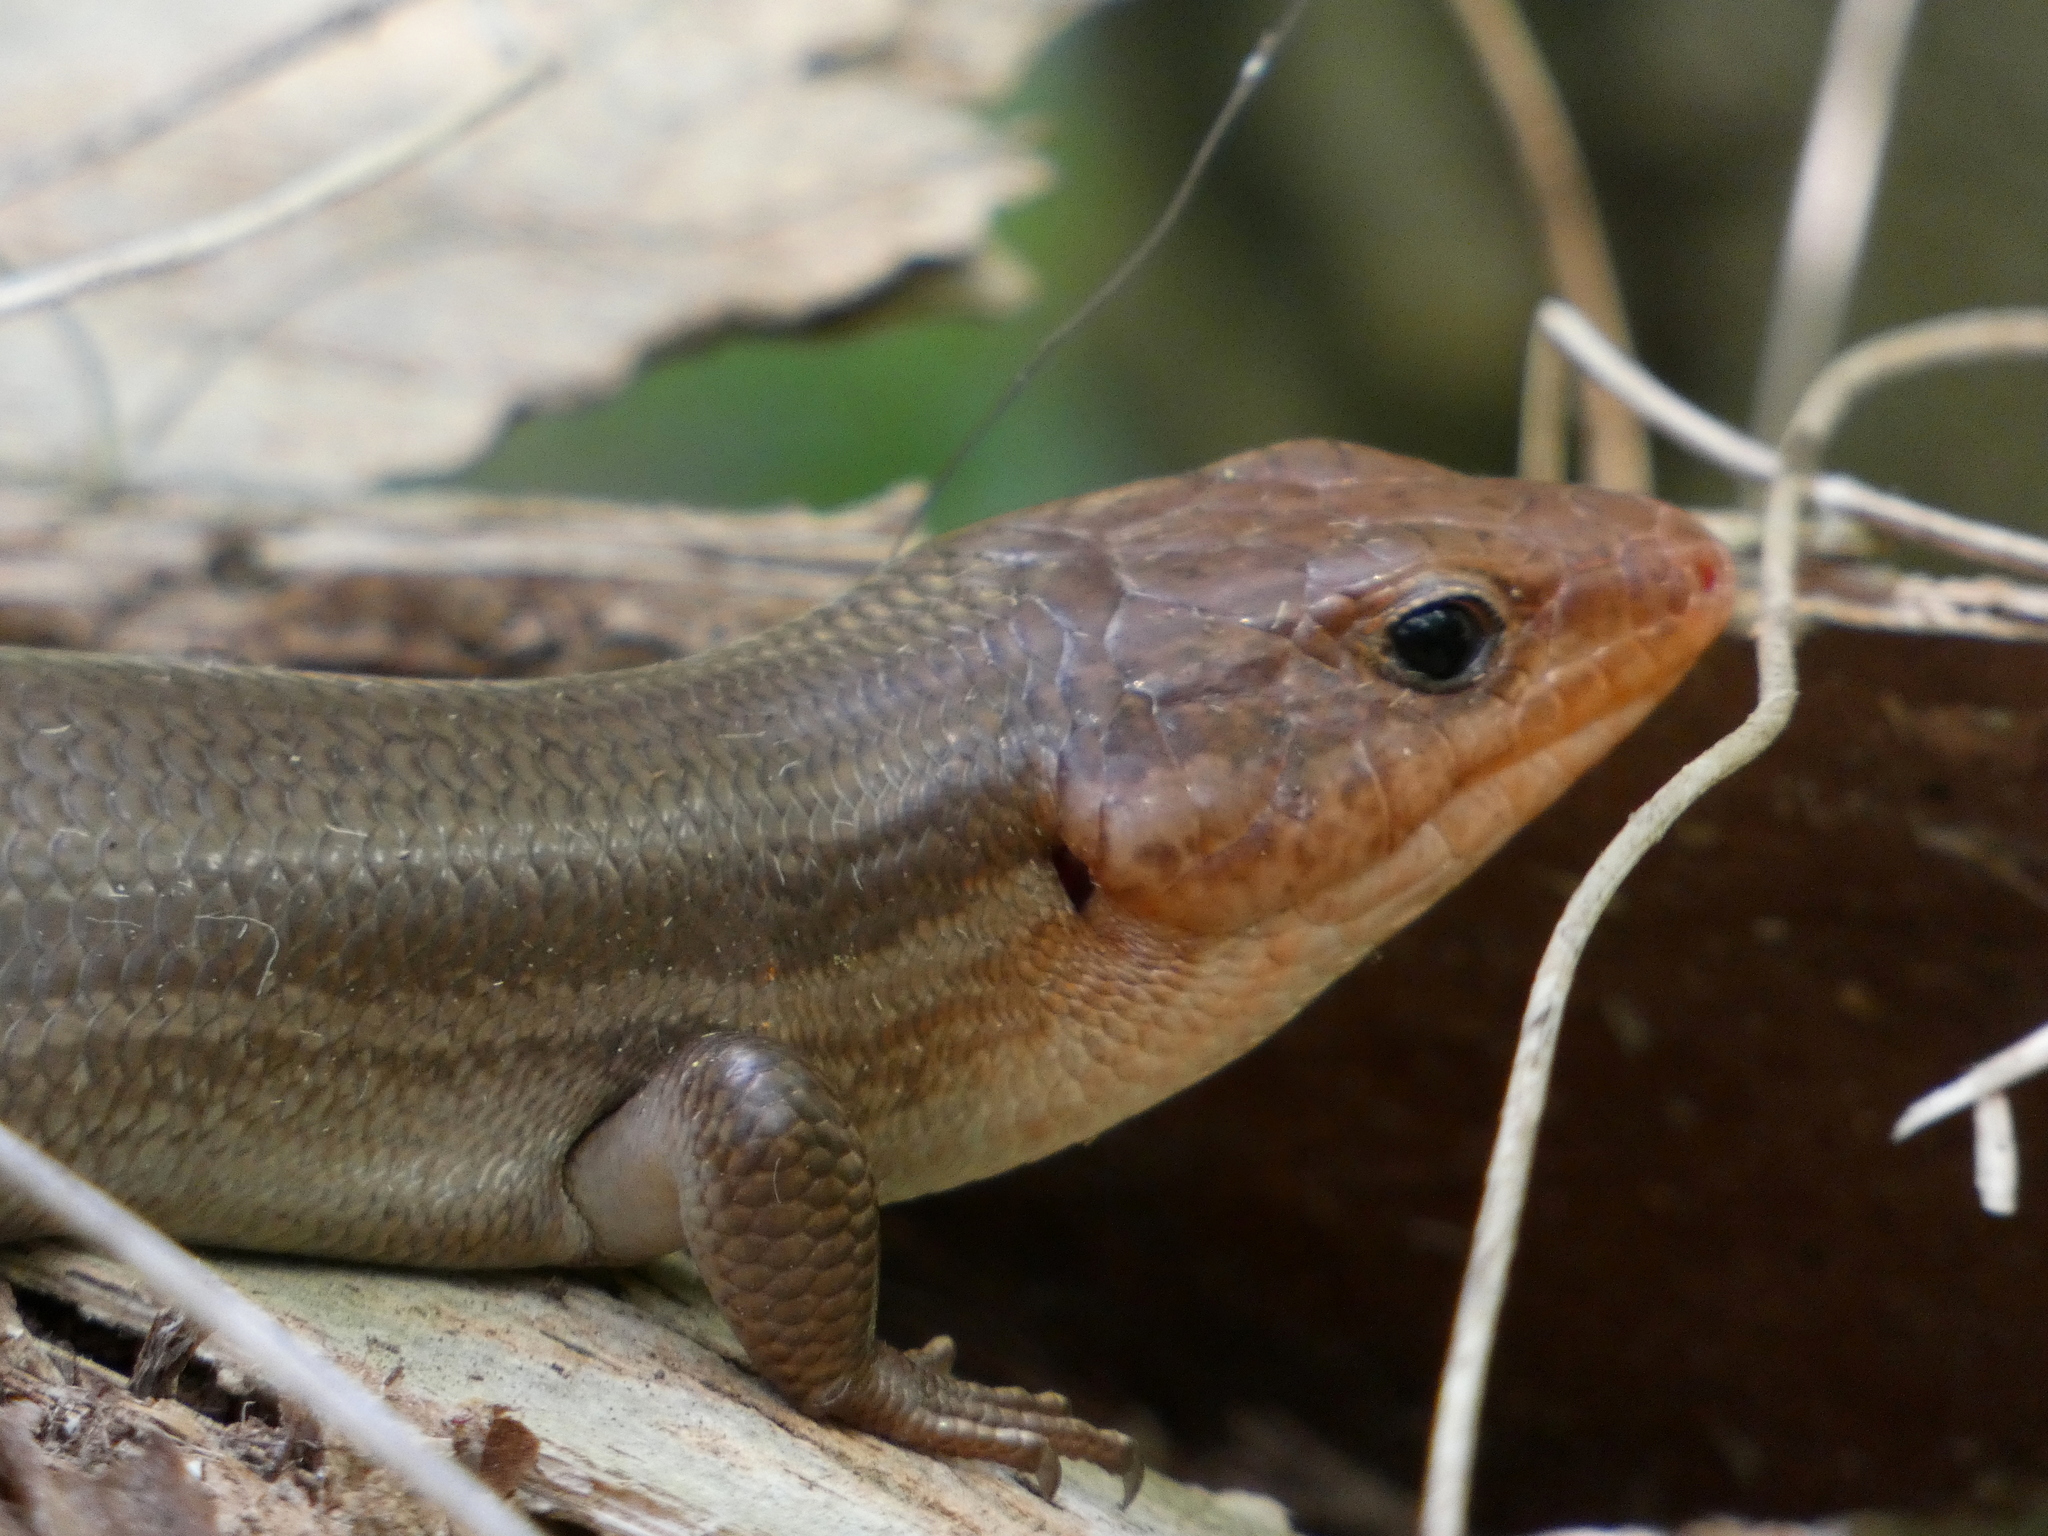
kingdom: Animalia
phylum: Chordata
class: Squamata
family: Scincidae
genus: Plestiodon
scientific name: Plestiodon laticeps
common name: Broadhead skink
